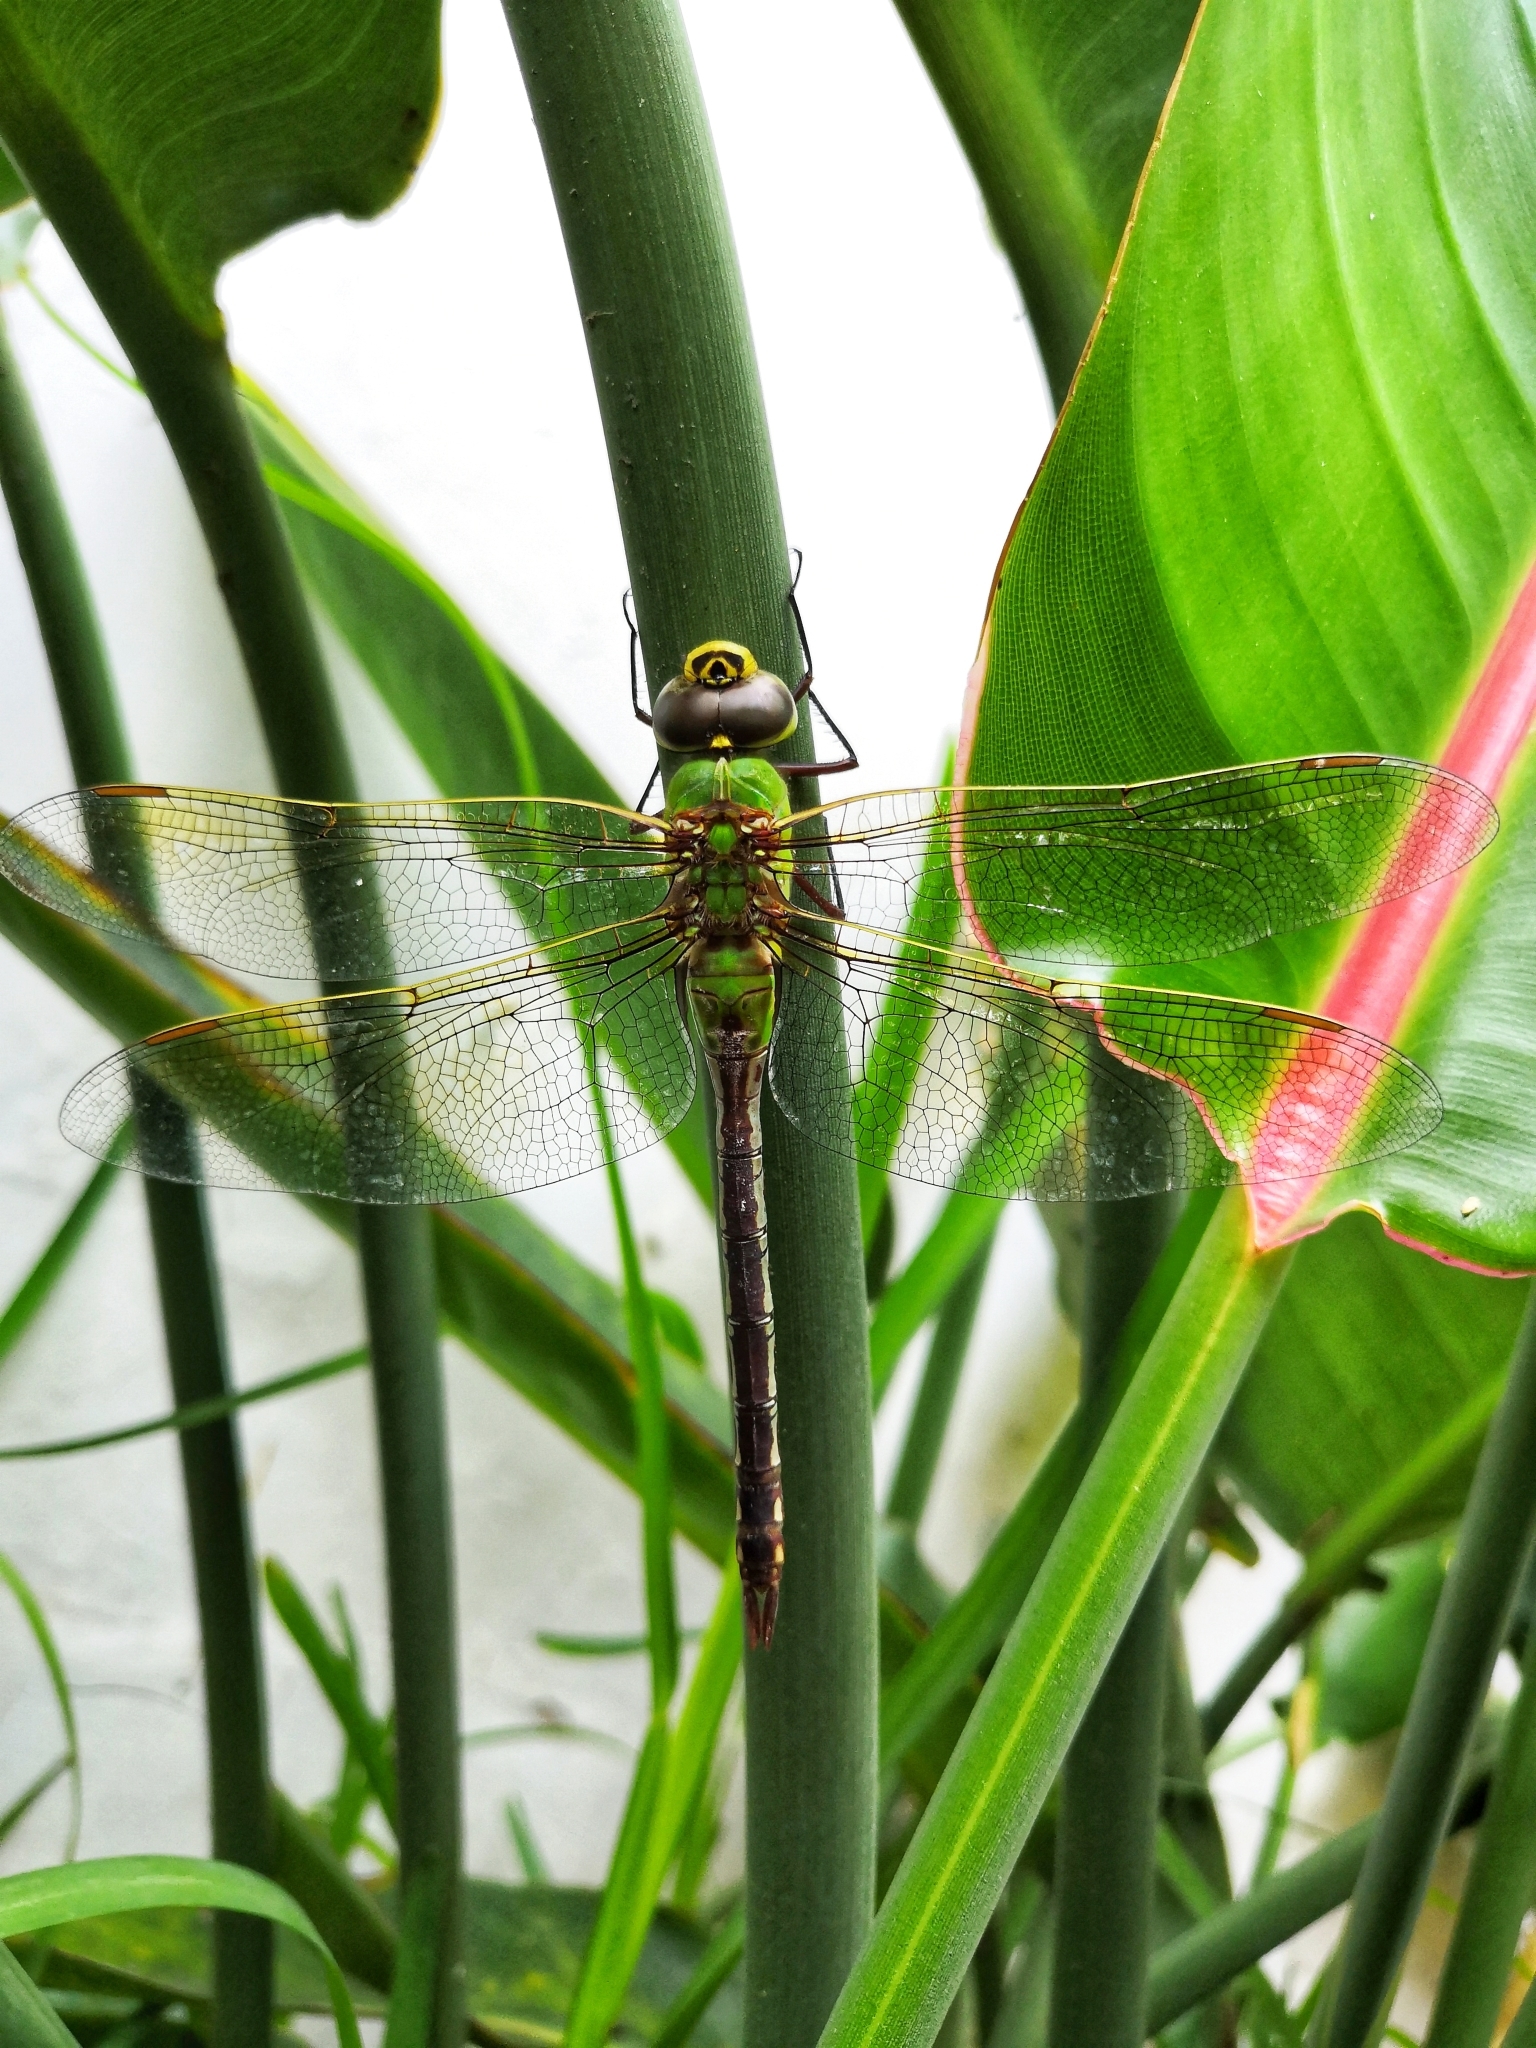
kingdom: Animalia
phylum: Arthropoda
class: Insecta
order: Odonata
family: Aeshnidae
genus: Anax
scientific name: Anax junius
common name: Common green darner
